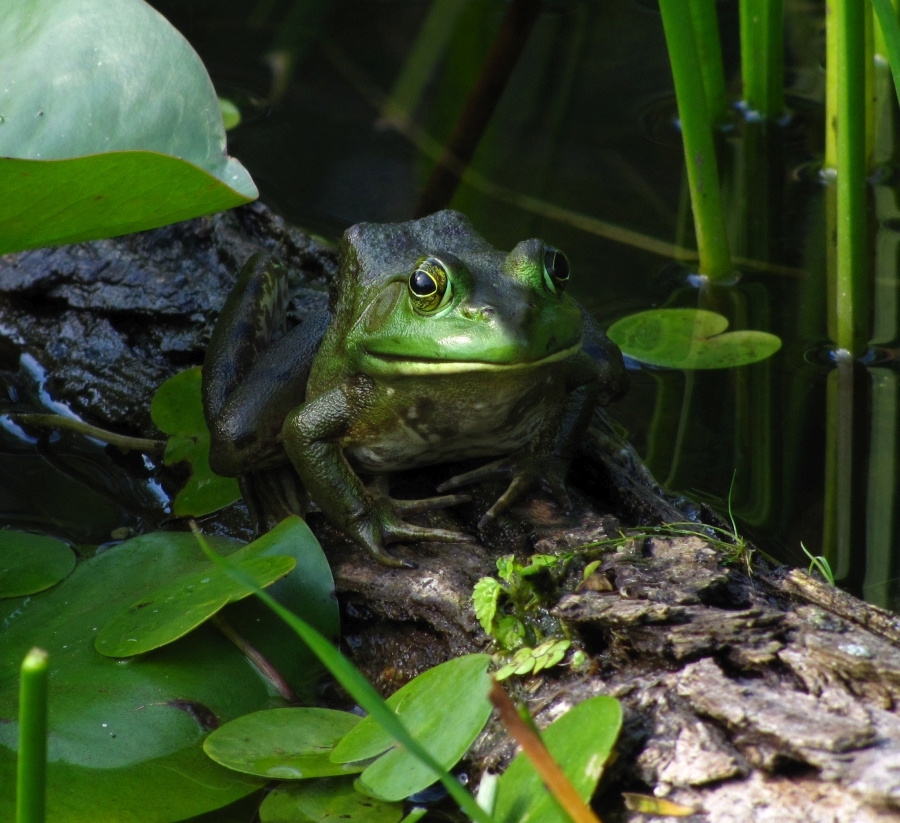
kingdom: Animalia
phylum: Chordata
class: Amphibia
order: Anura
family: Ranidae
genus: Lithobates
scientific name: Lithobates catesbeianus
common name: American bullfrog
